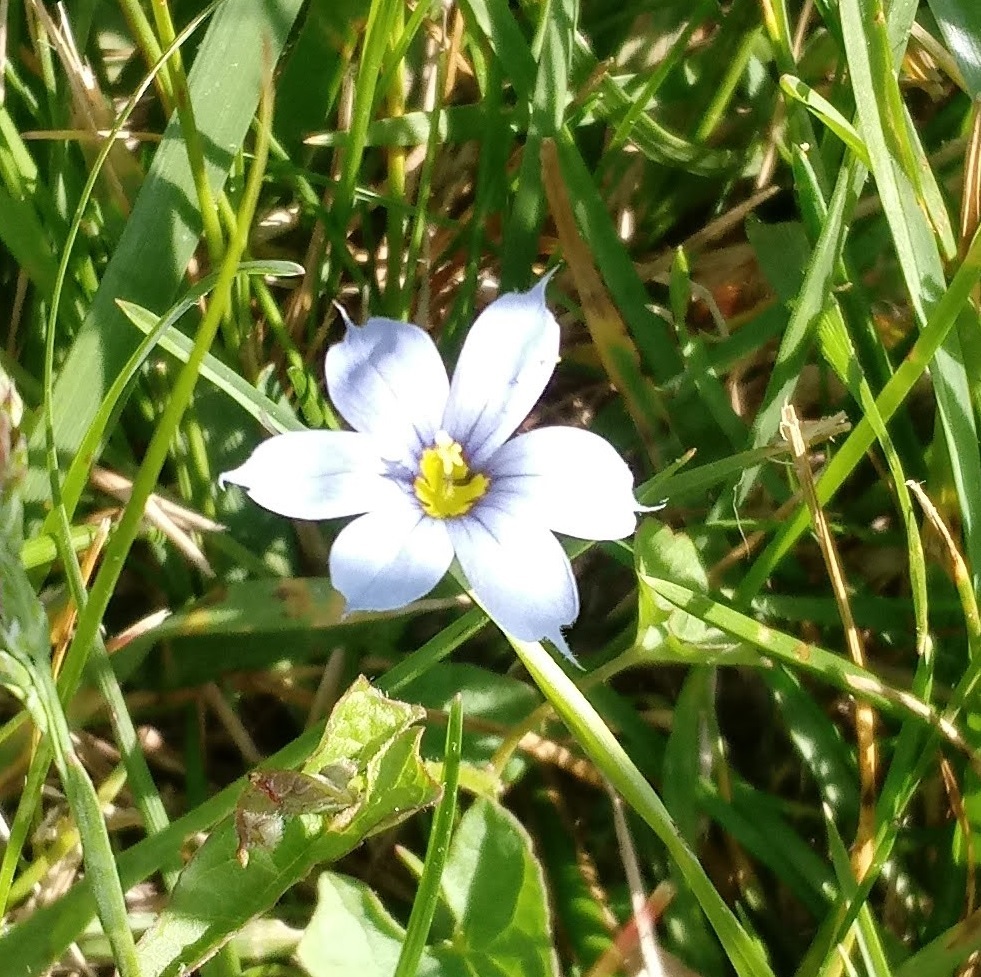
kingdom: Plantae
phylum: Tracheophyta
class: Liliopsida
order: Asparagales
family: Iridaceae
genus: Sisyrinchium
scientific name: Sisyrinchium angustifolium
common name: Narrow-leaf blue-eyed-grass
